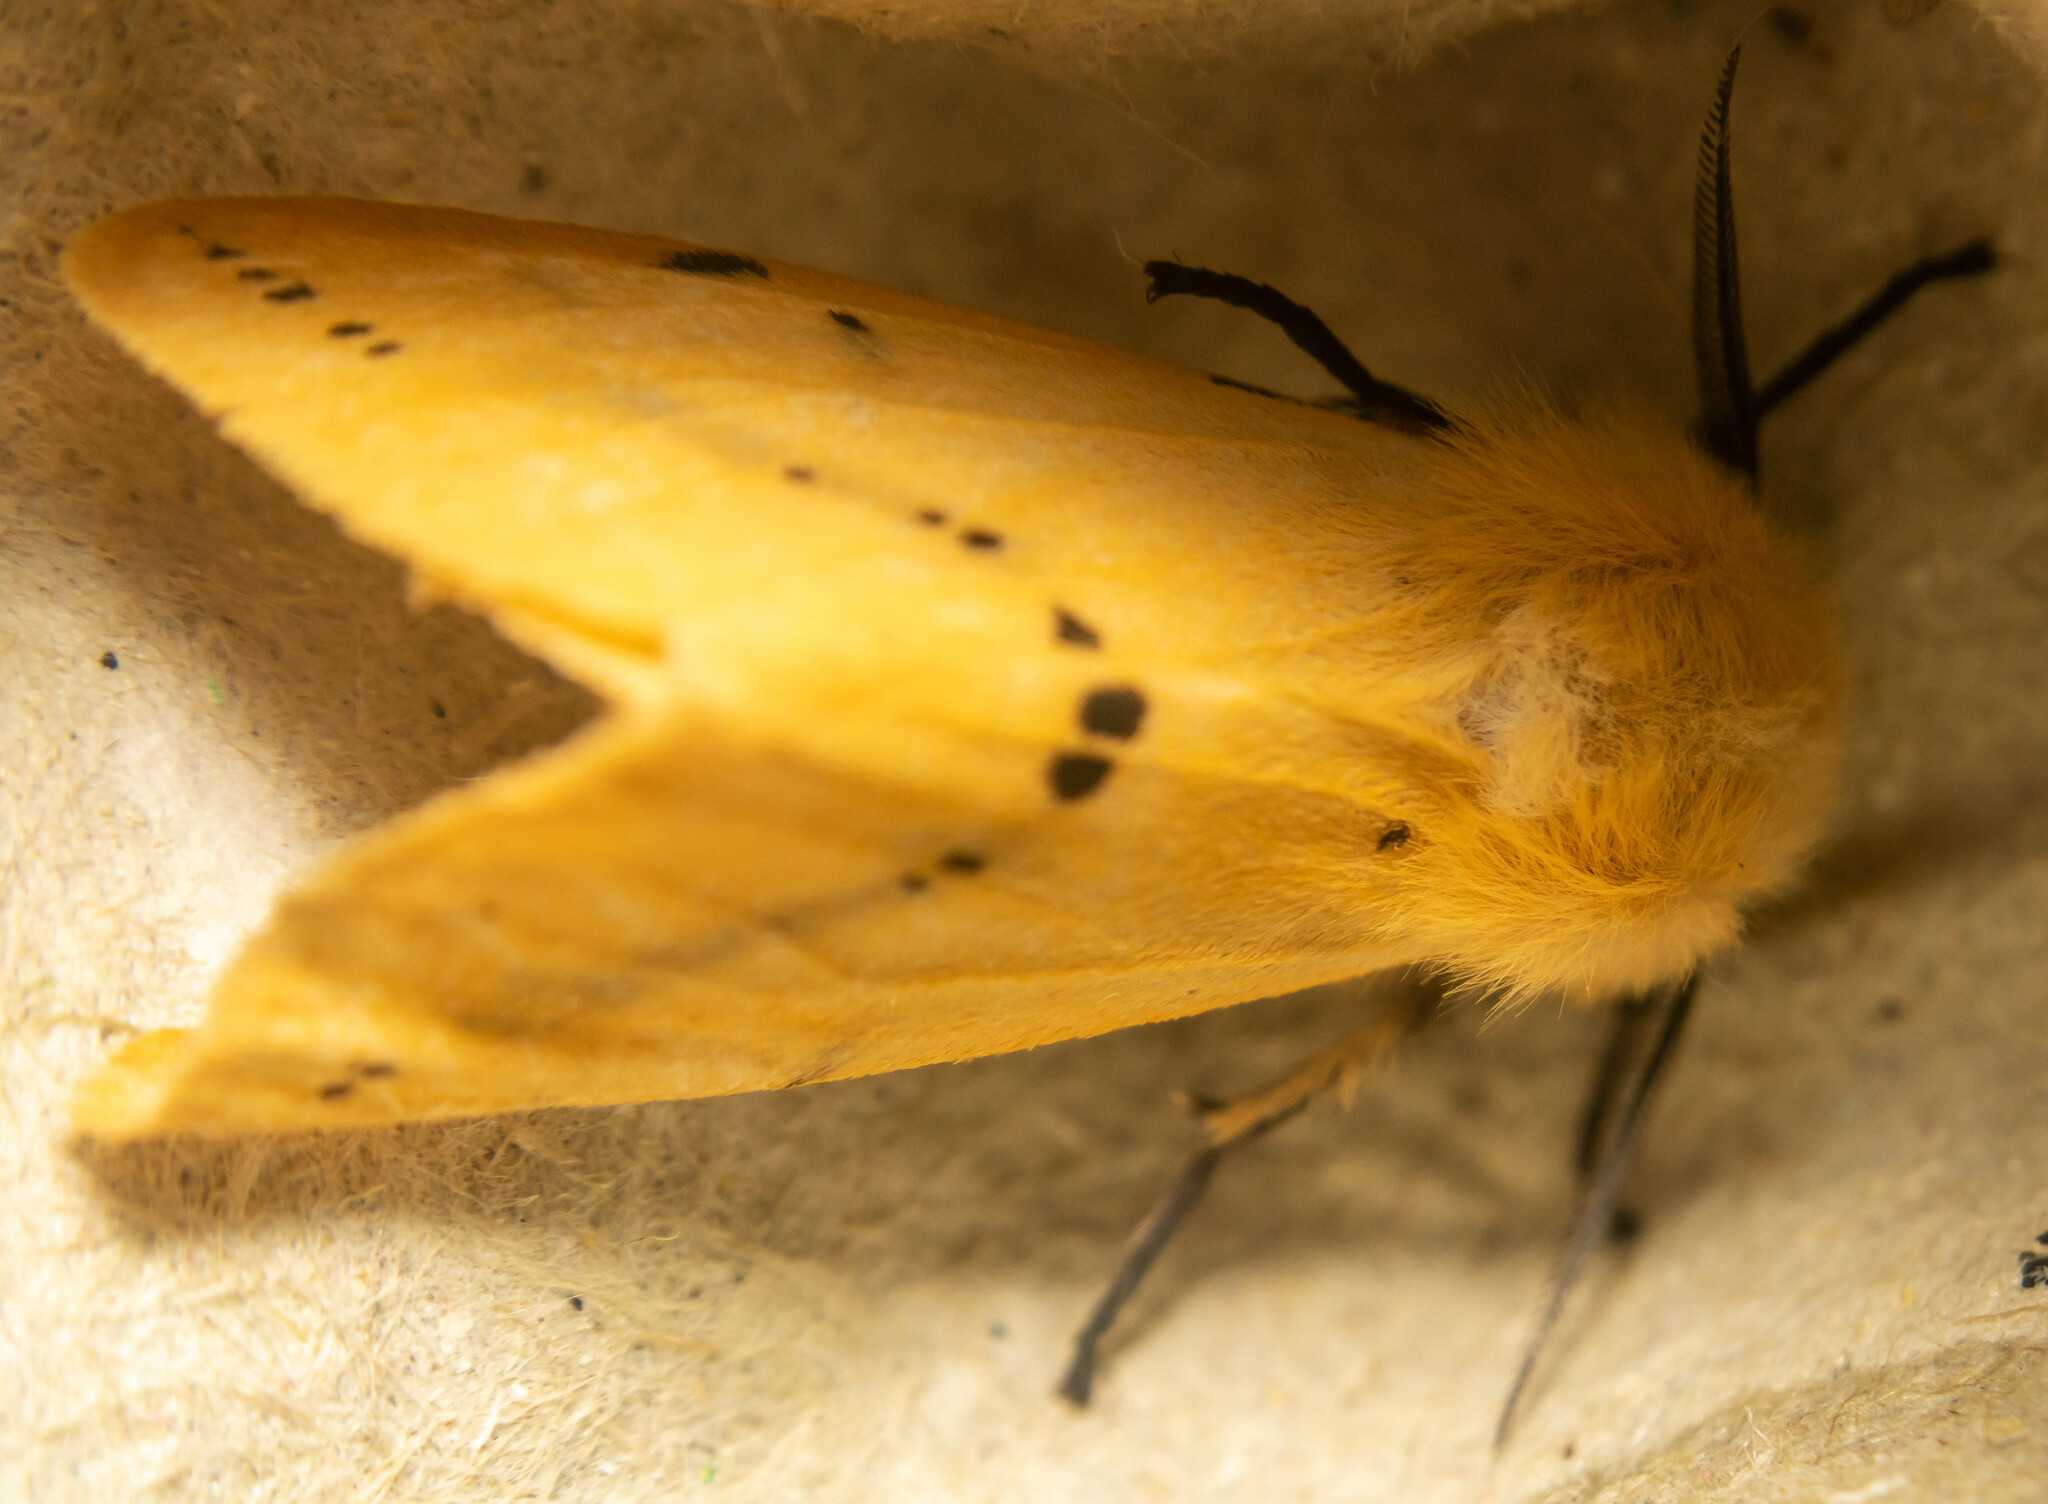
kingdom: Animalia
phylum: Arthropoda
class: Insecta
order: Lepidoptera
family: Erebidae
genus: Spilarctia
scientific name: Spilarctia lutea
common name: Buff ermine
